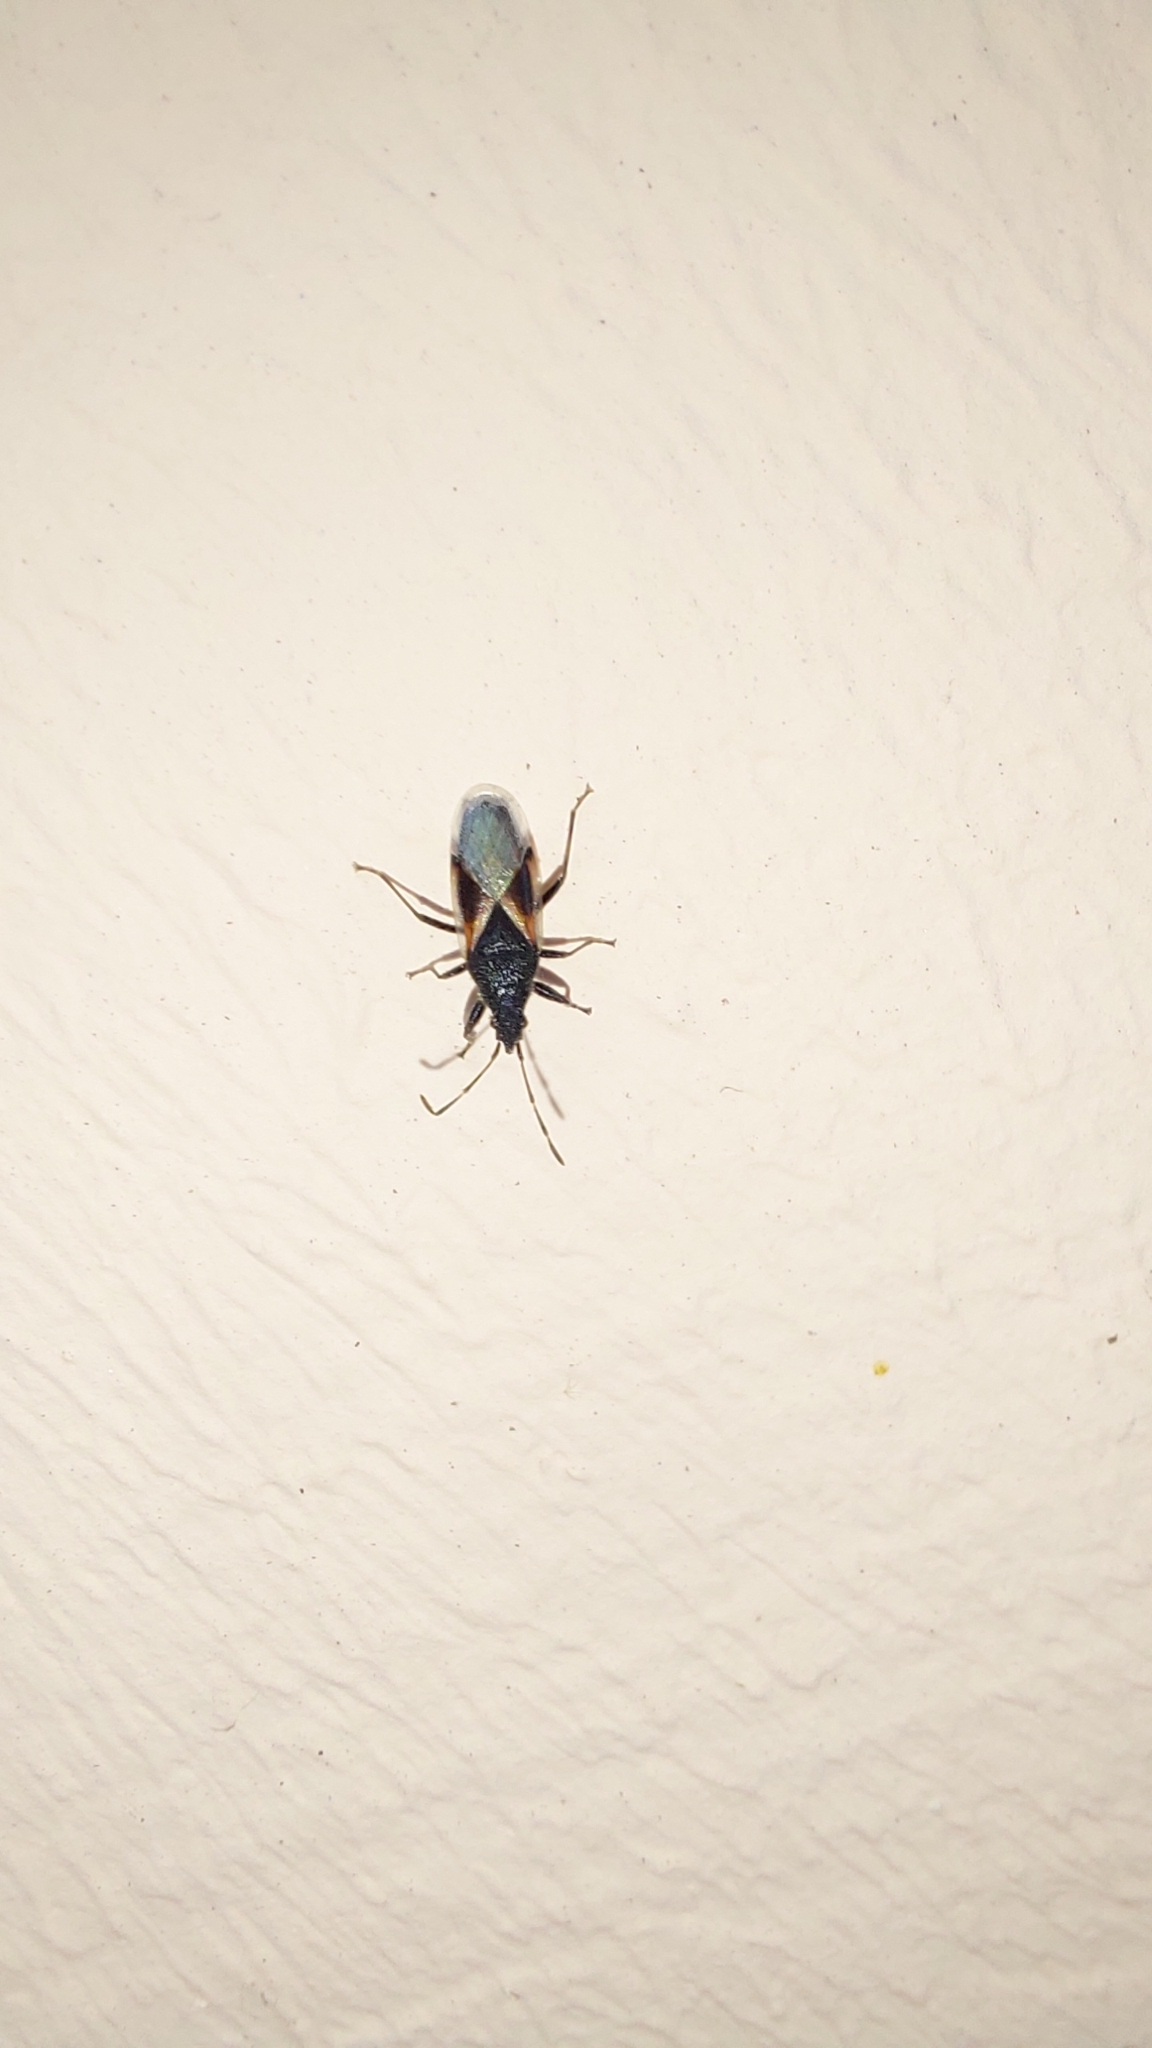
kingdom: Animalia
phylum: Arthropoda
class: Insecta
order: Hemiptera
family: Oxycarenidae
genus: Oxycarenus
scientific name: Oxycarenus lavaterae
